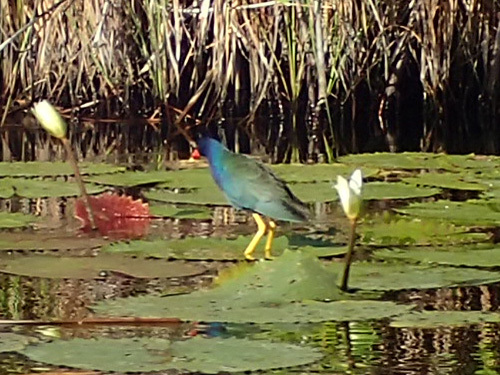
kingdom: Animalia
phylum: Chordata
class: Aves
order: Gruiformes
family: Rallidae
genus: Porphyrio
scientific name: Porphyrio martinica
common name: Purple gallinule
